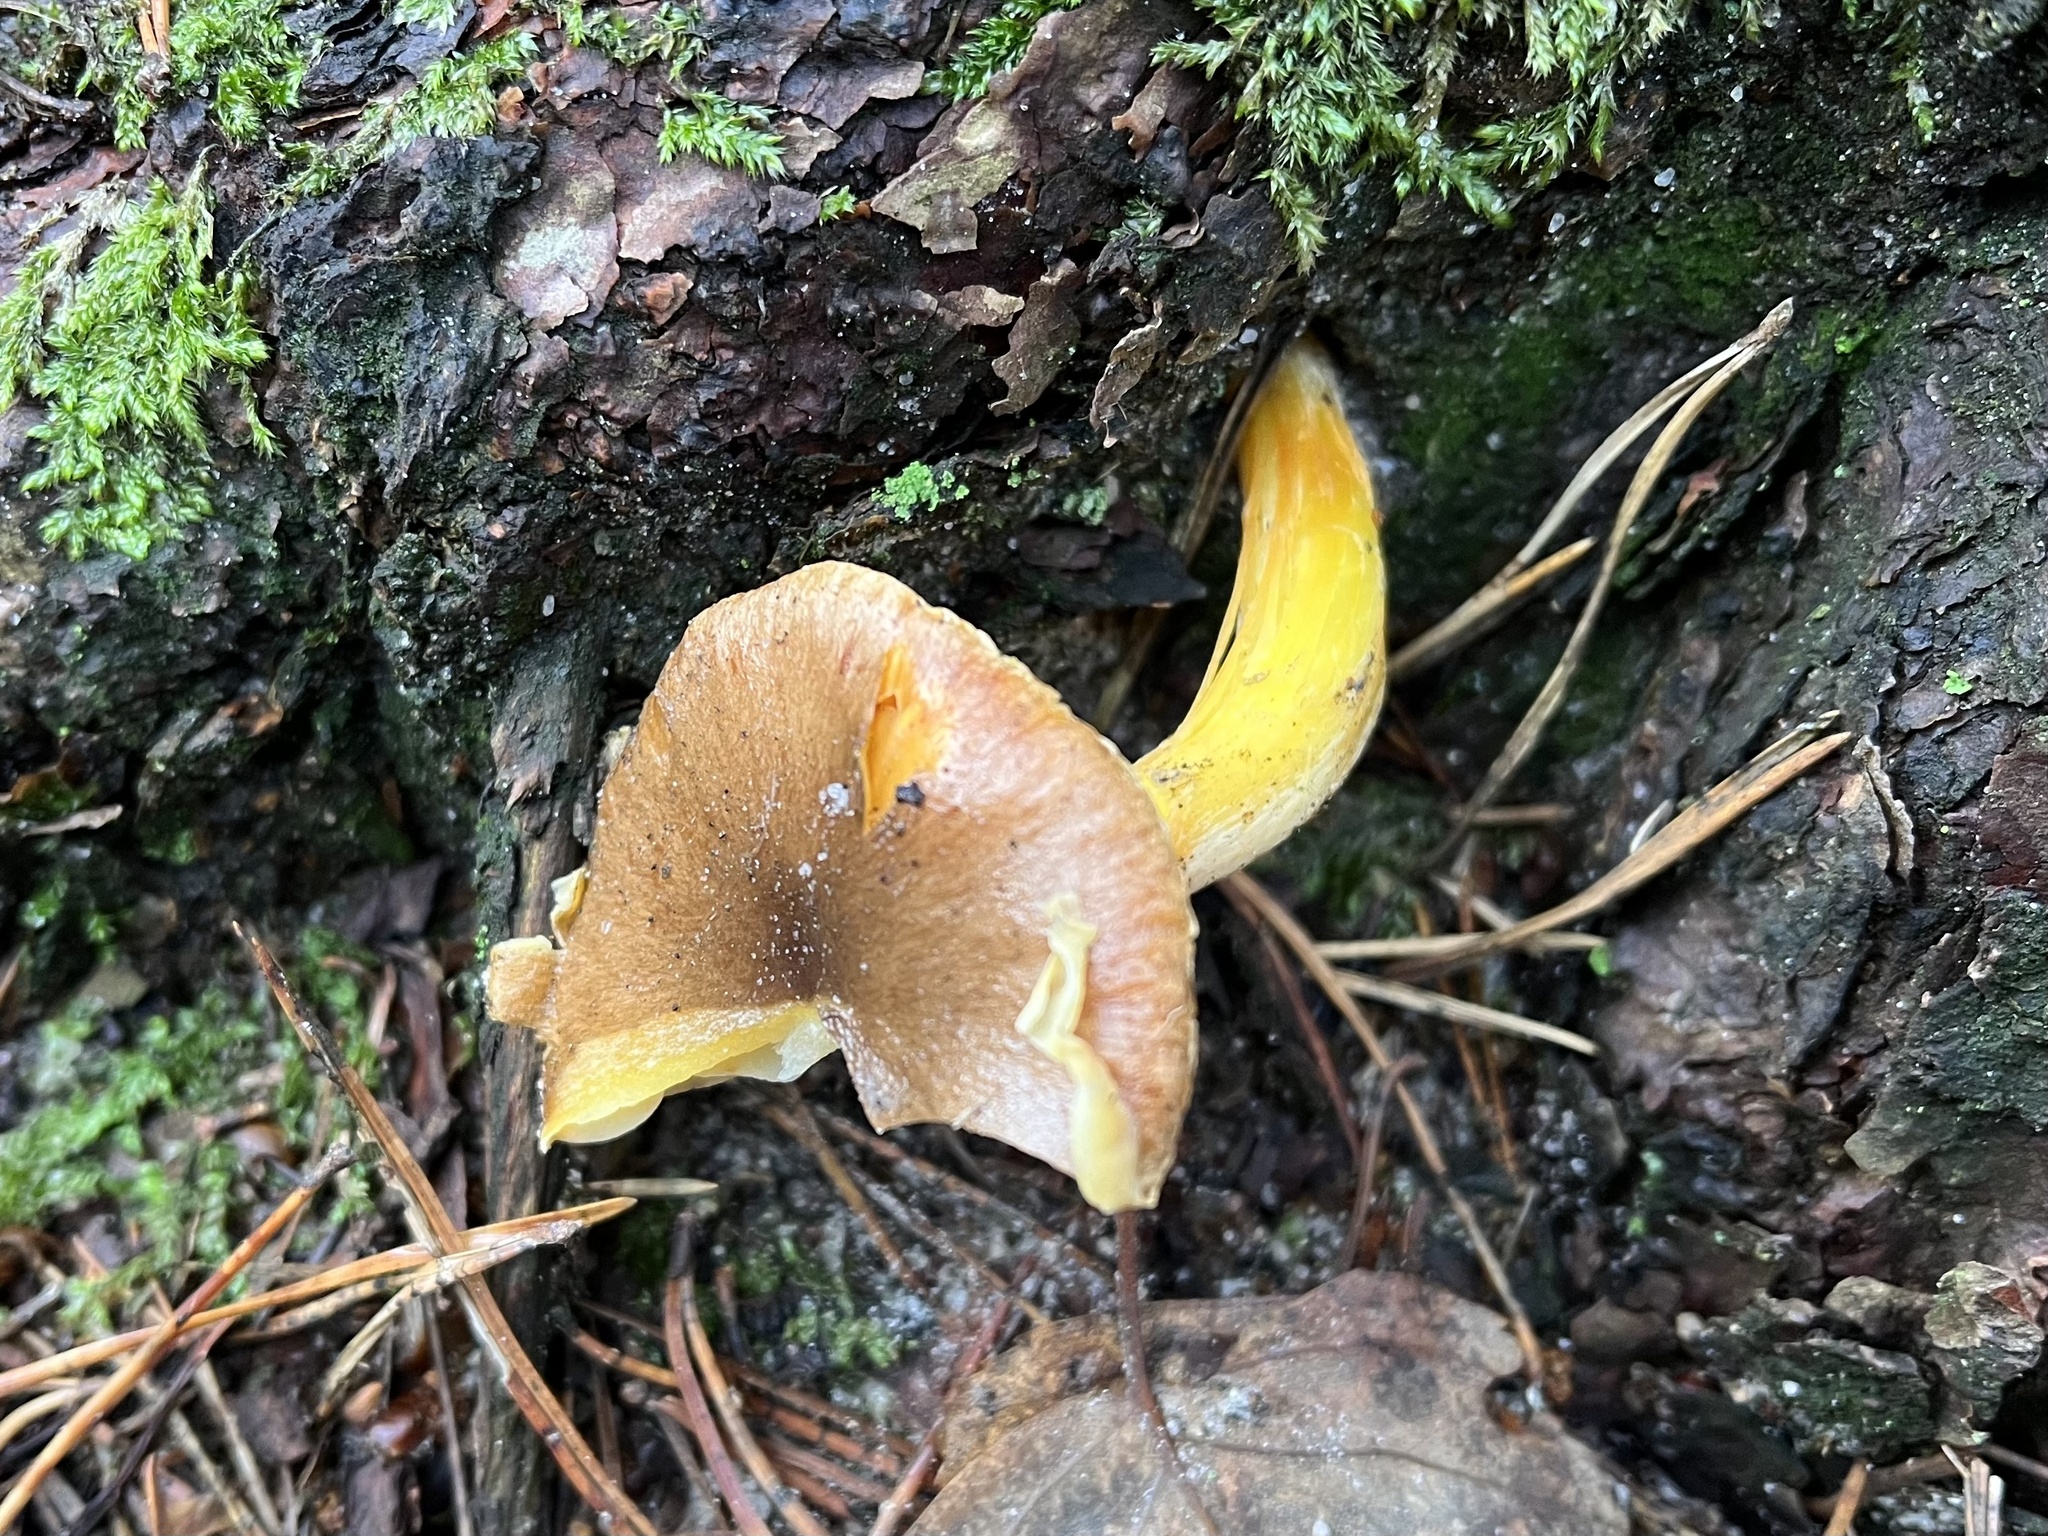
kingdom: Fungi
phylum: Basidiomycota
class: Agaricomycetes
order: Agaricales
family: Hygrophoraceae
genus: Hygrophorus
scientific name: Hygrophorus hypothejus
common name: Herald of winter
